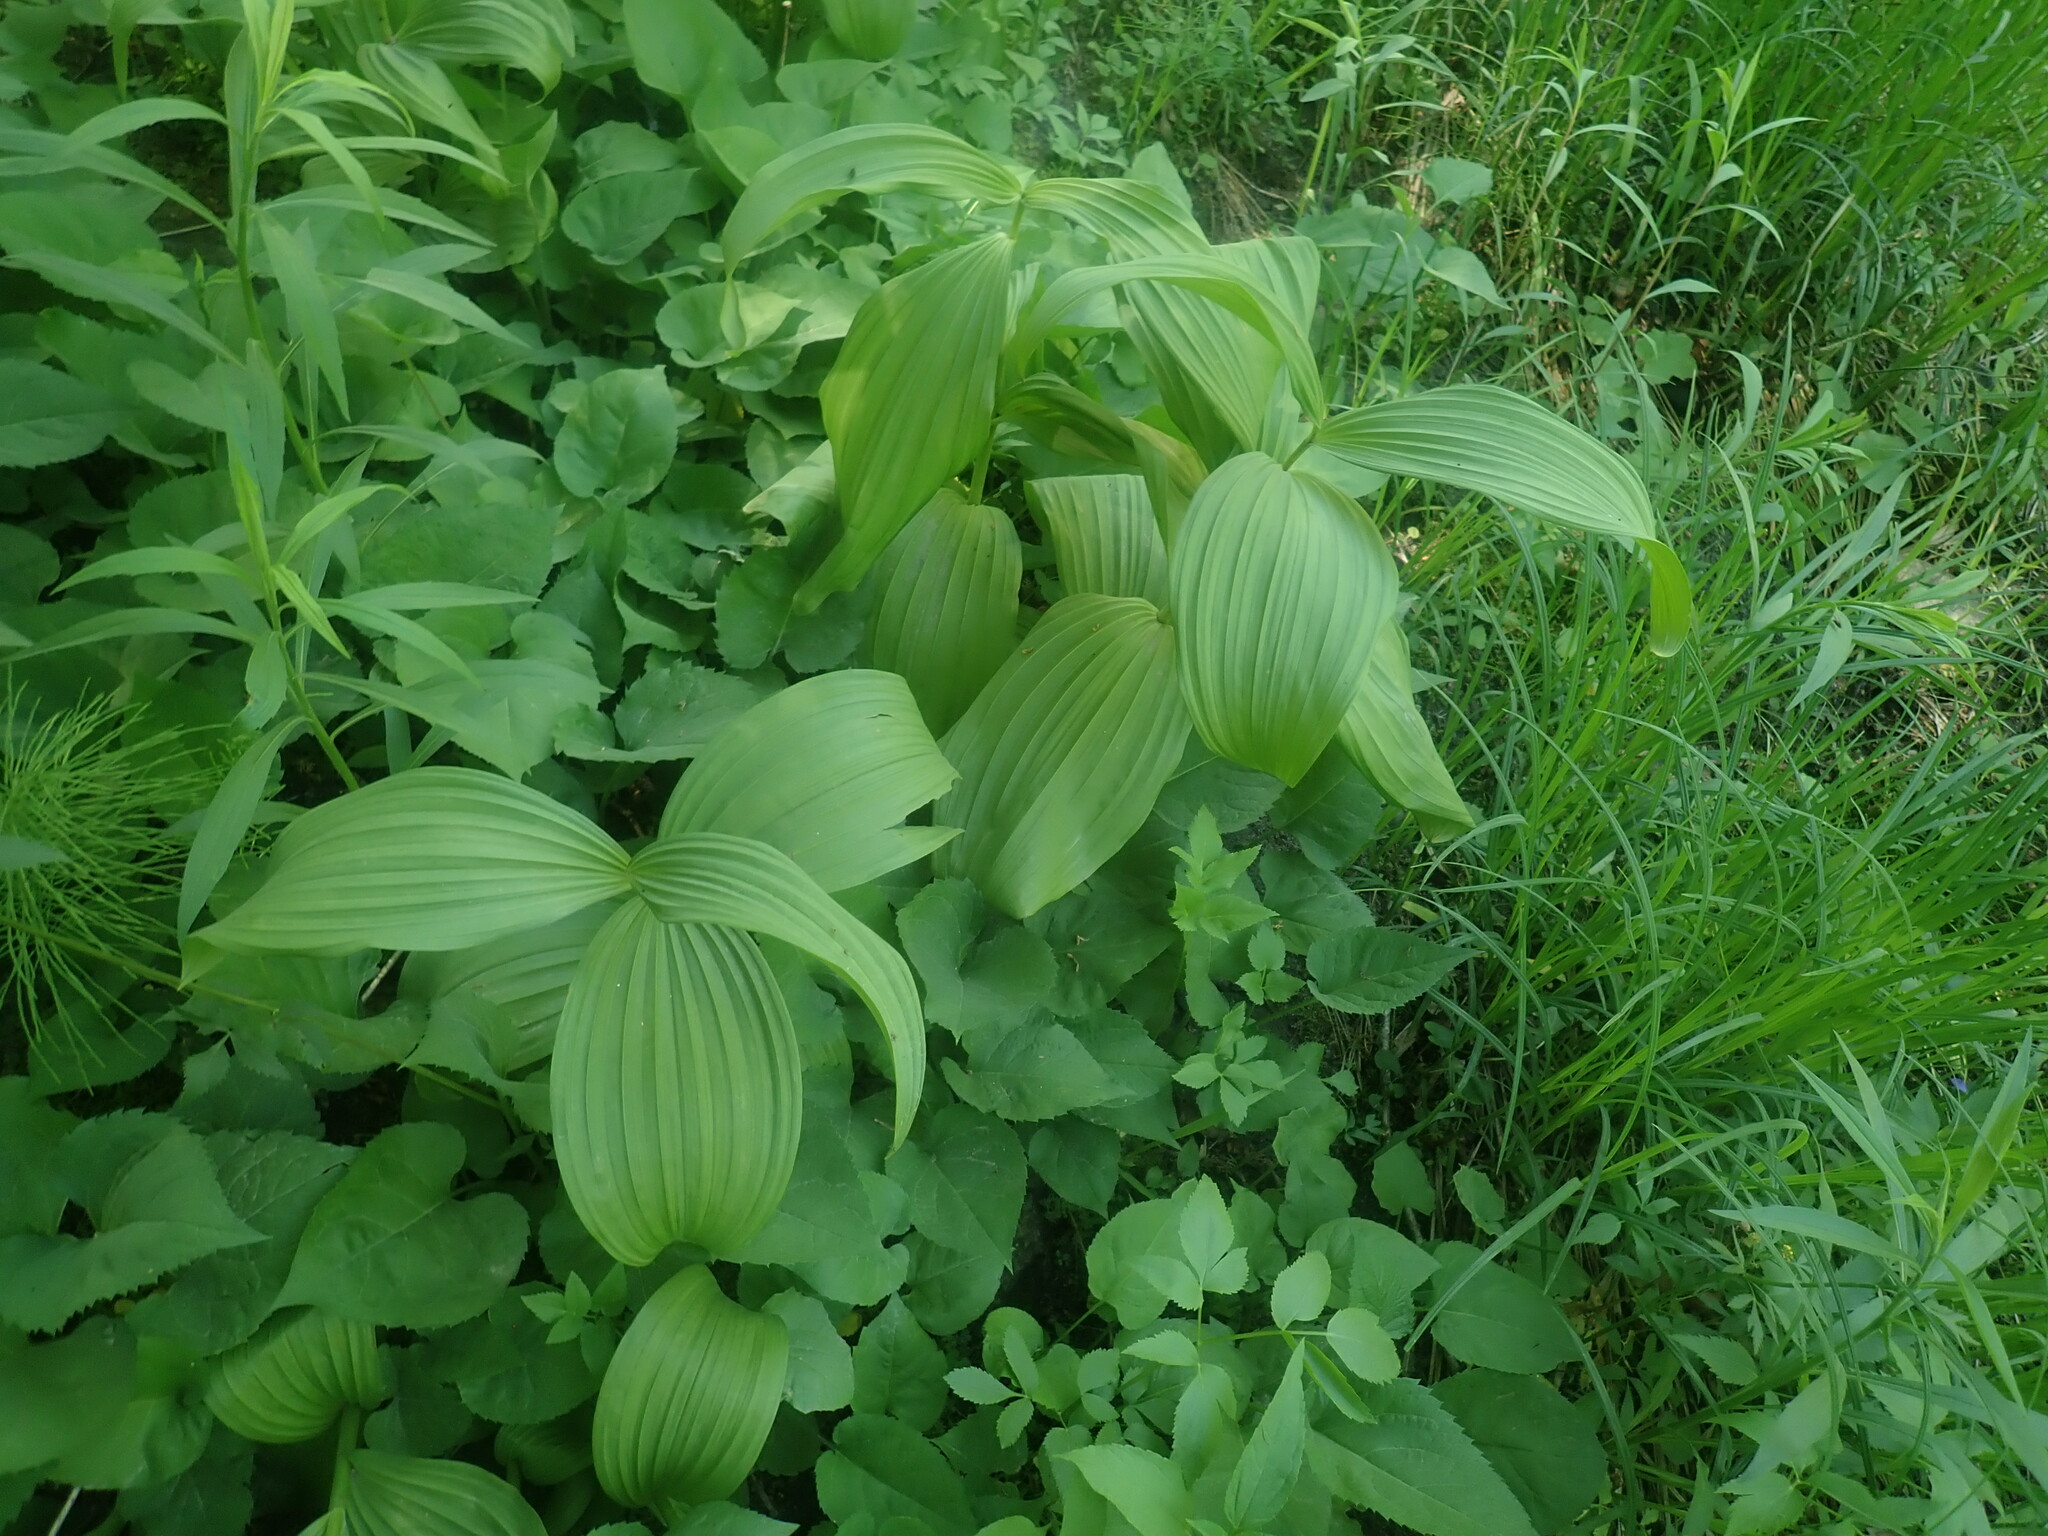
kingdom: Plantae
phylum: Tracheophyta
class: Liliopsida
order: Liliales
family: Melanthiaceae
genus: Veratrum
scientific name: Veratrum viride
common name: American false hellebore
